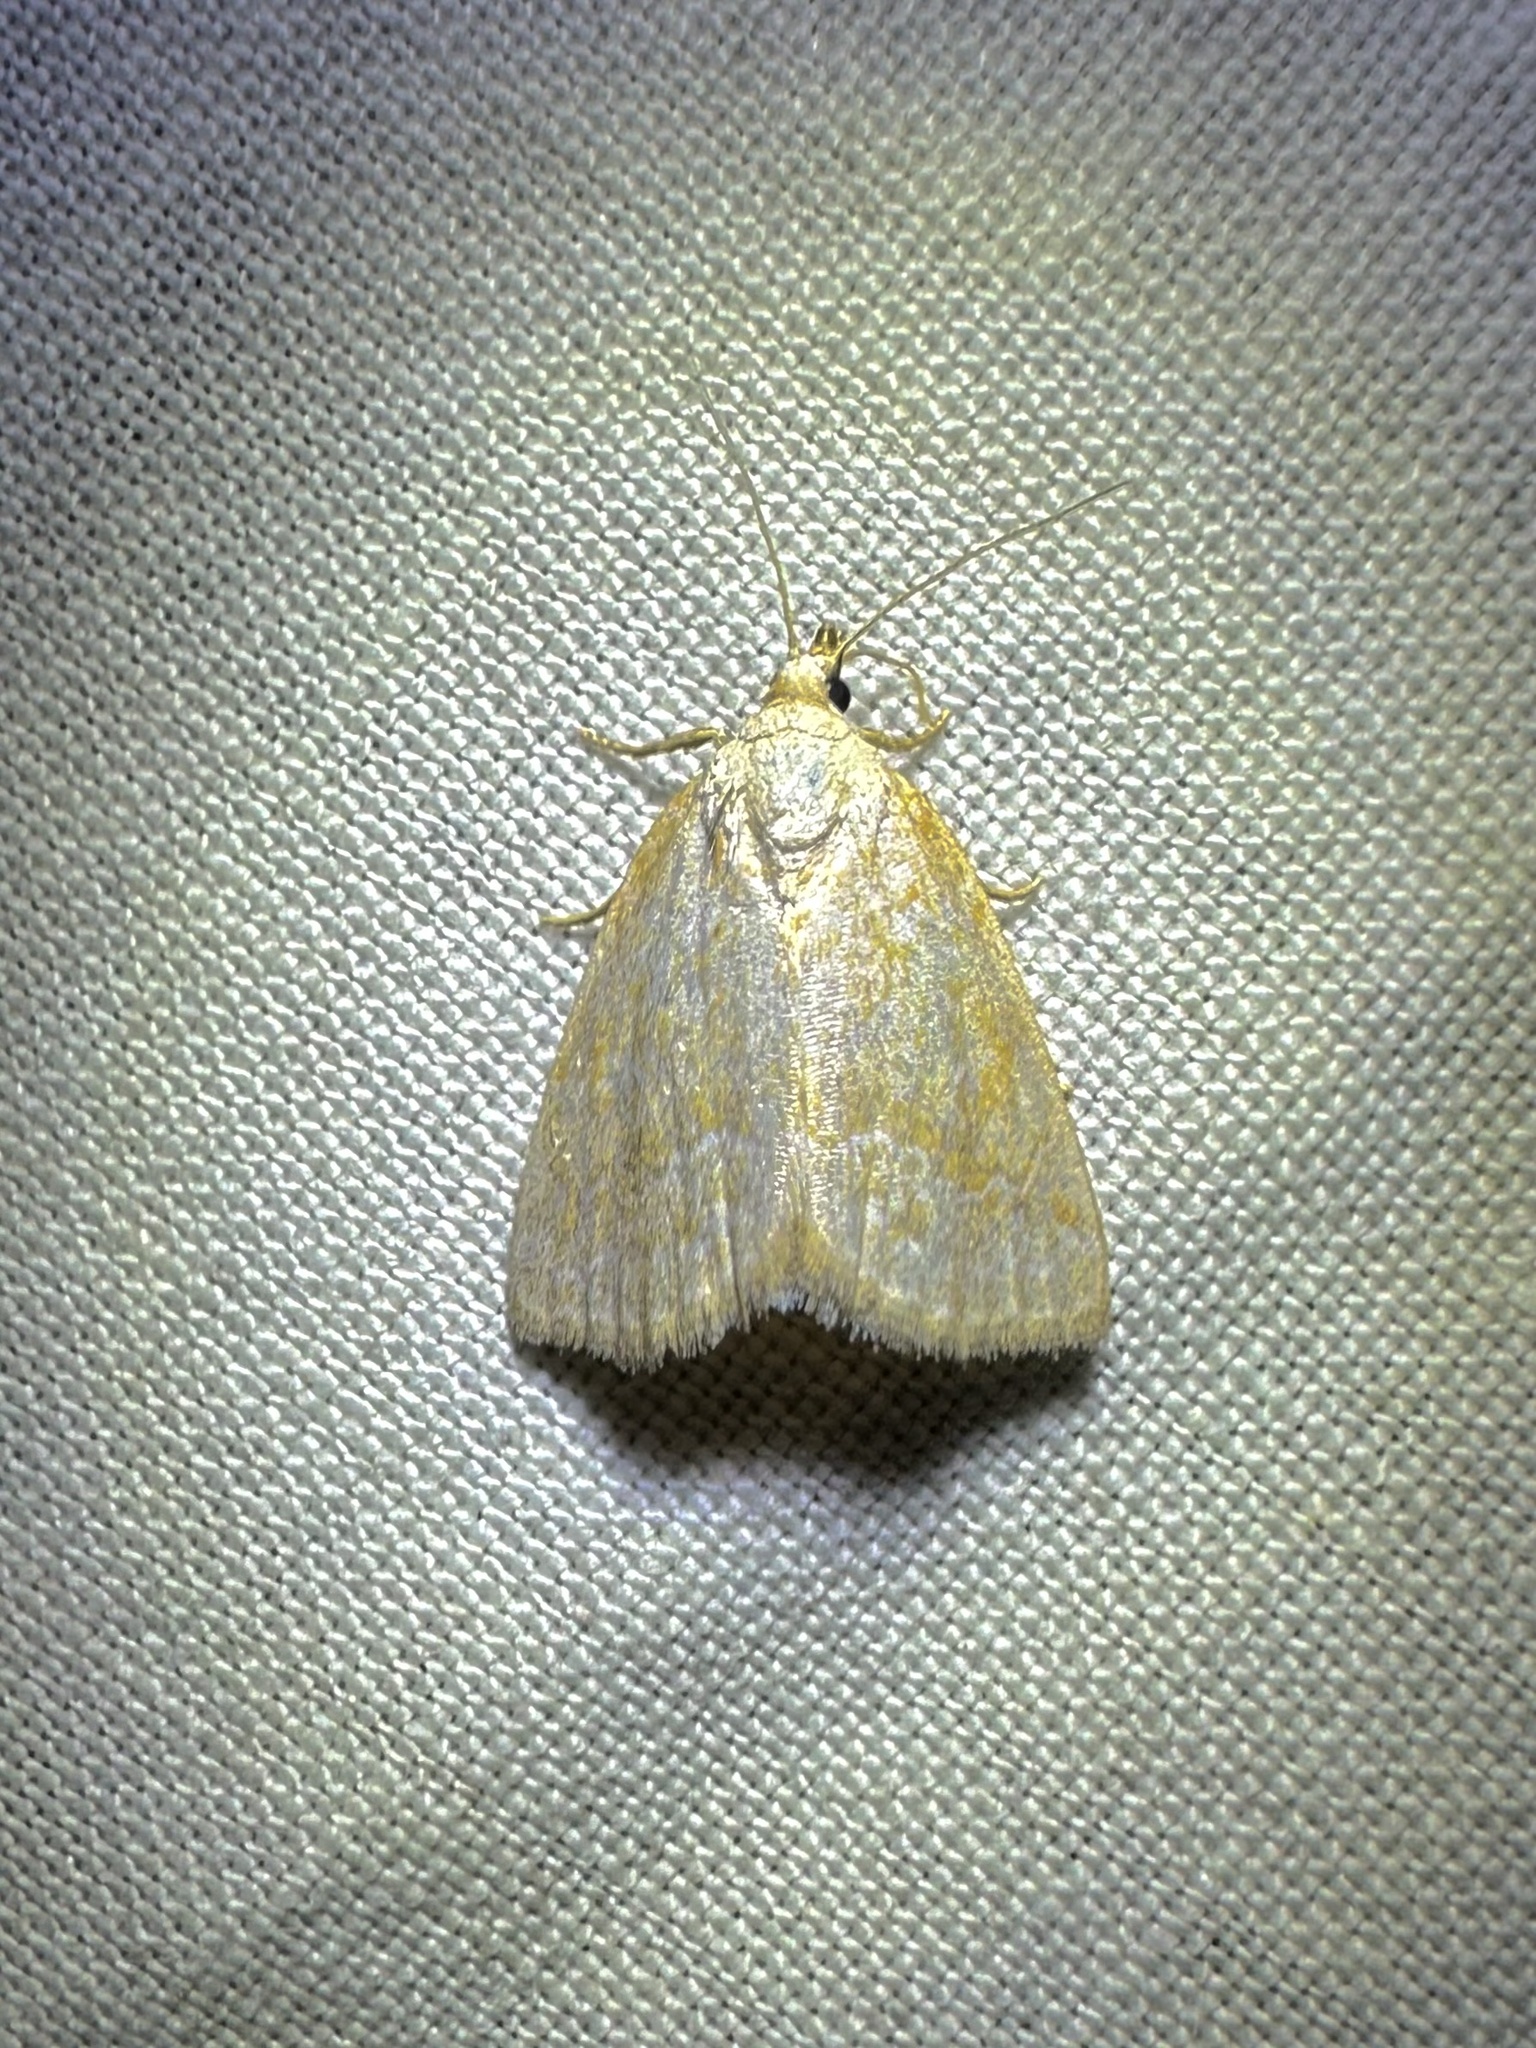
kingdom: Animalia
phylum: Arthropoda
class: Insecta
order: Lepidoptera
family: Noctuidae
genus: Protodeltote
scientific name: Protodeltote albidula
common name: Pale glyph
